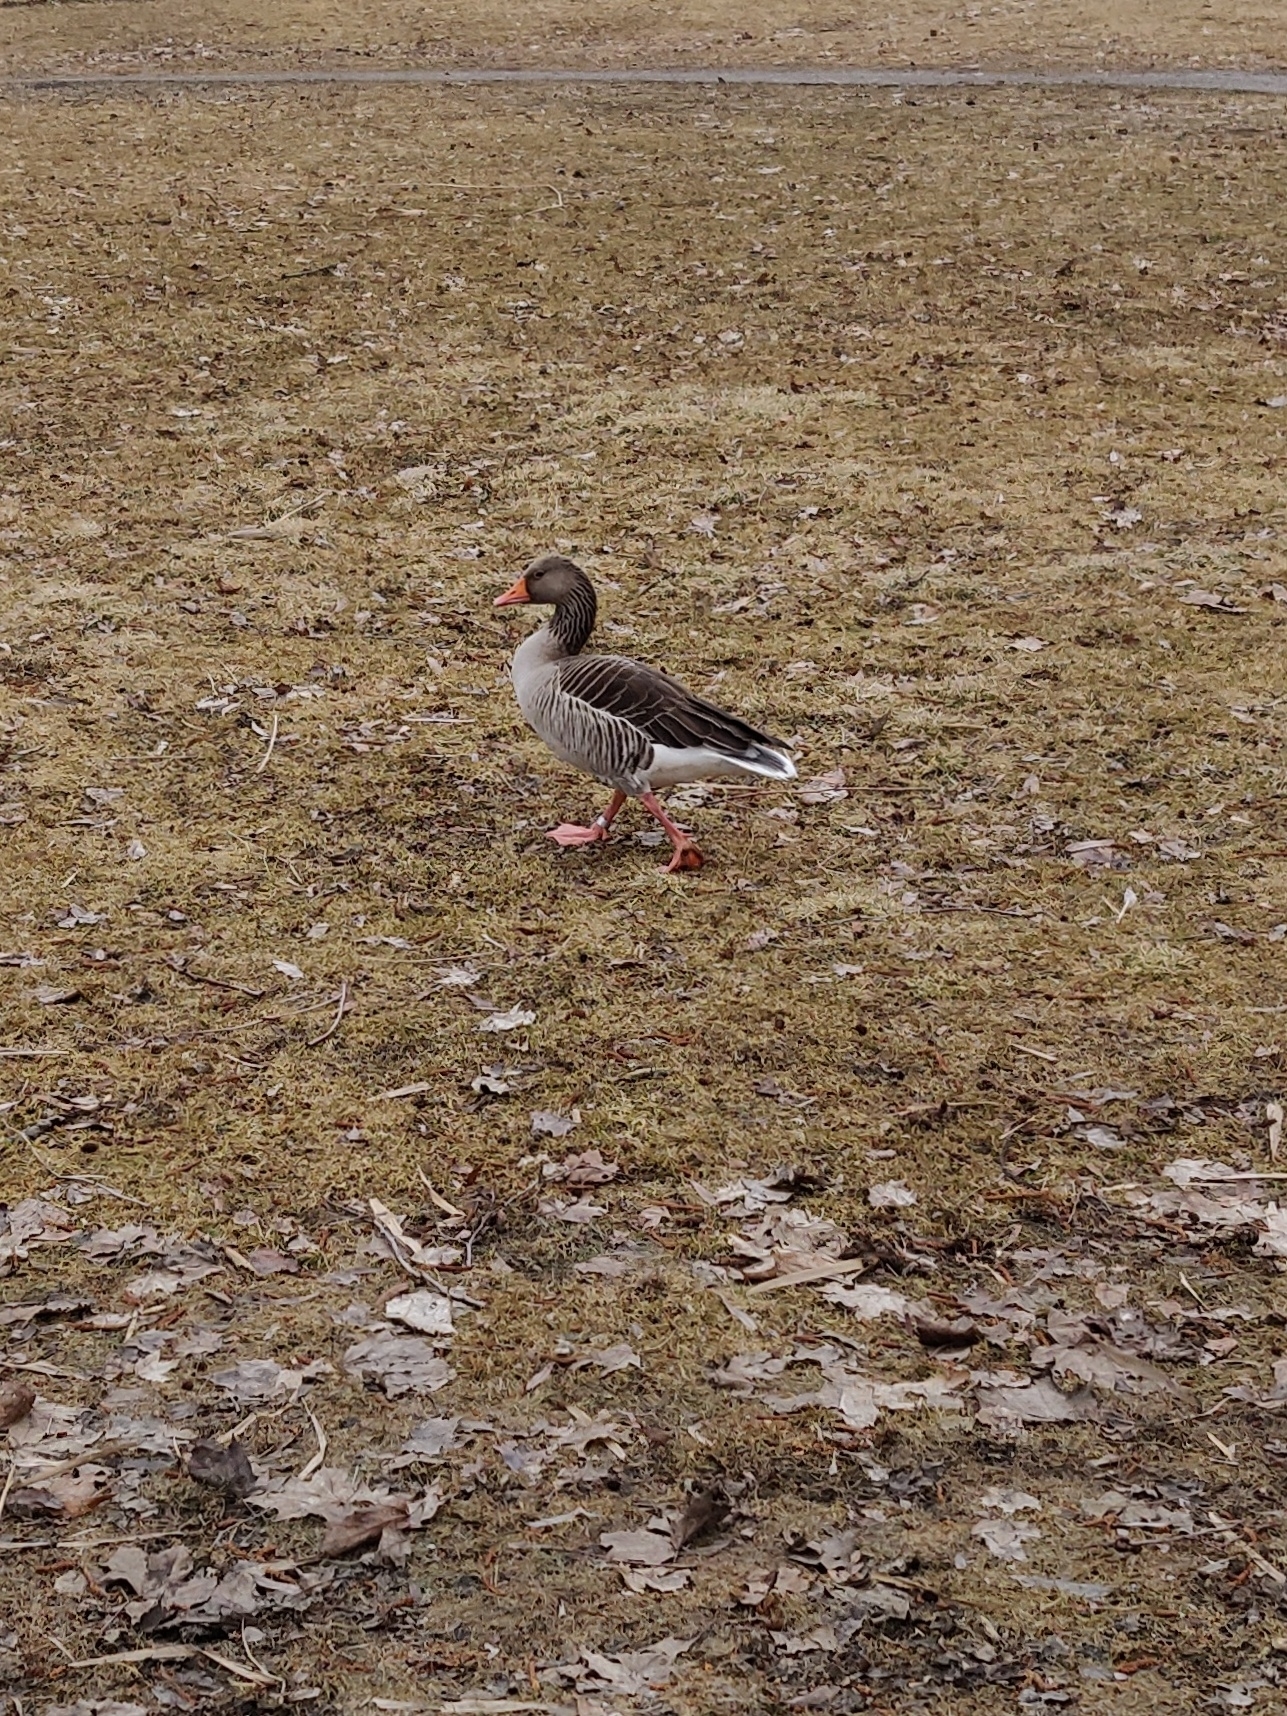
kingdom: Animalia
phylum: Chordata
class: Aves
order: Anseriformes
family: Anatidae
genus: Anser
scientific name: Anser anser
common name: Greylag goose
